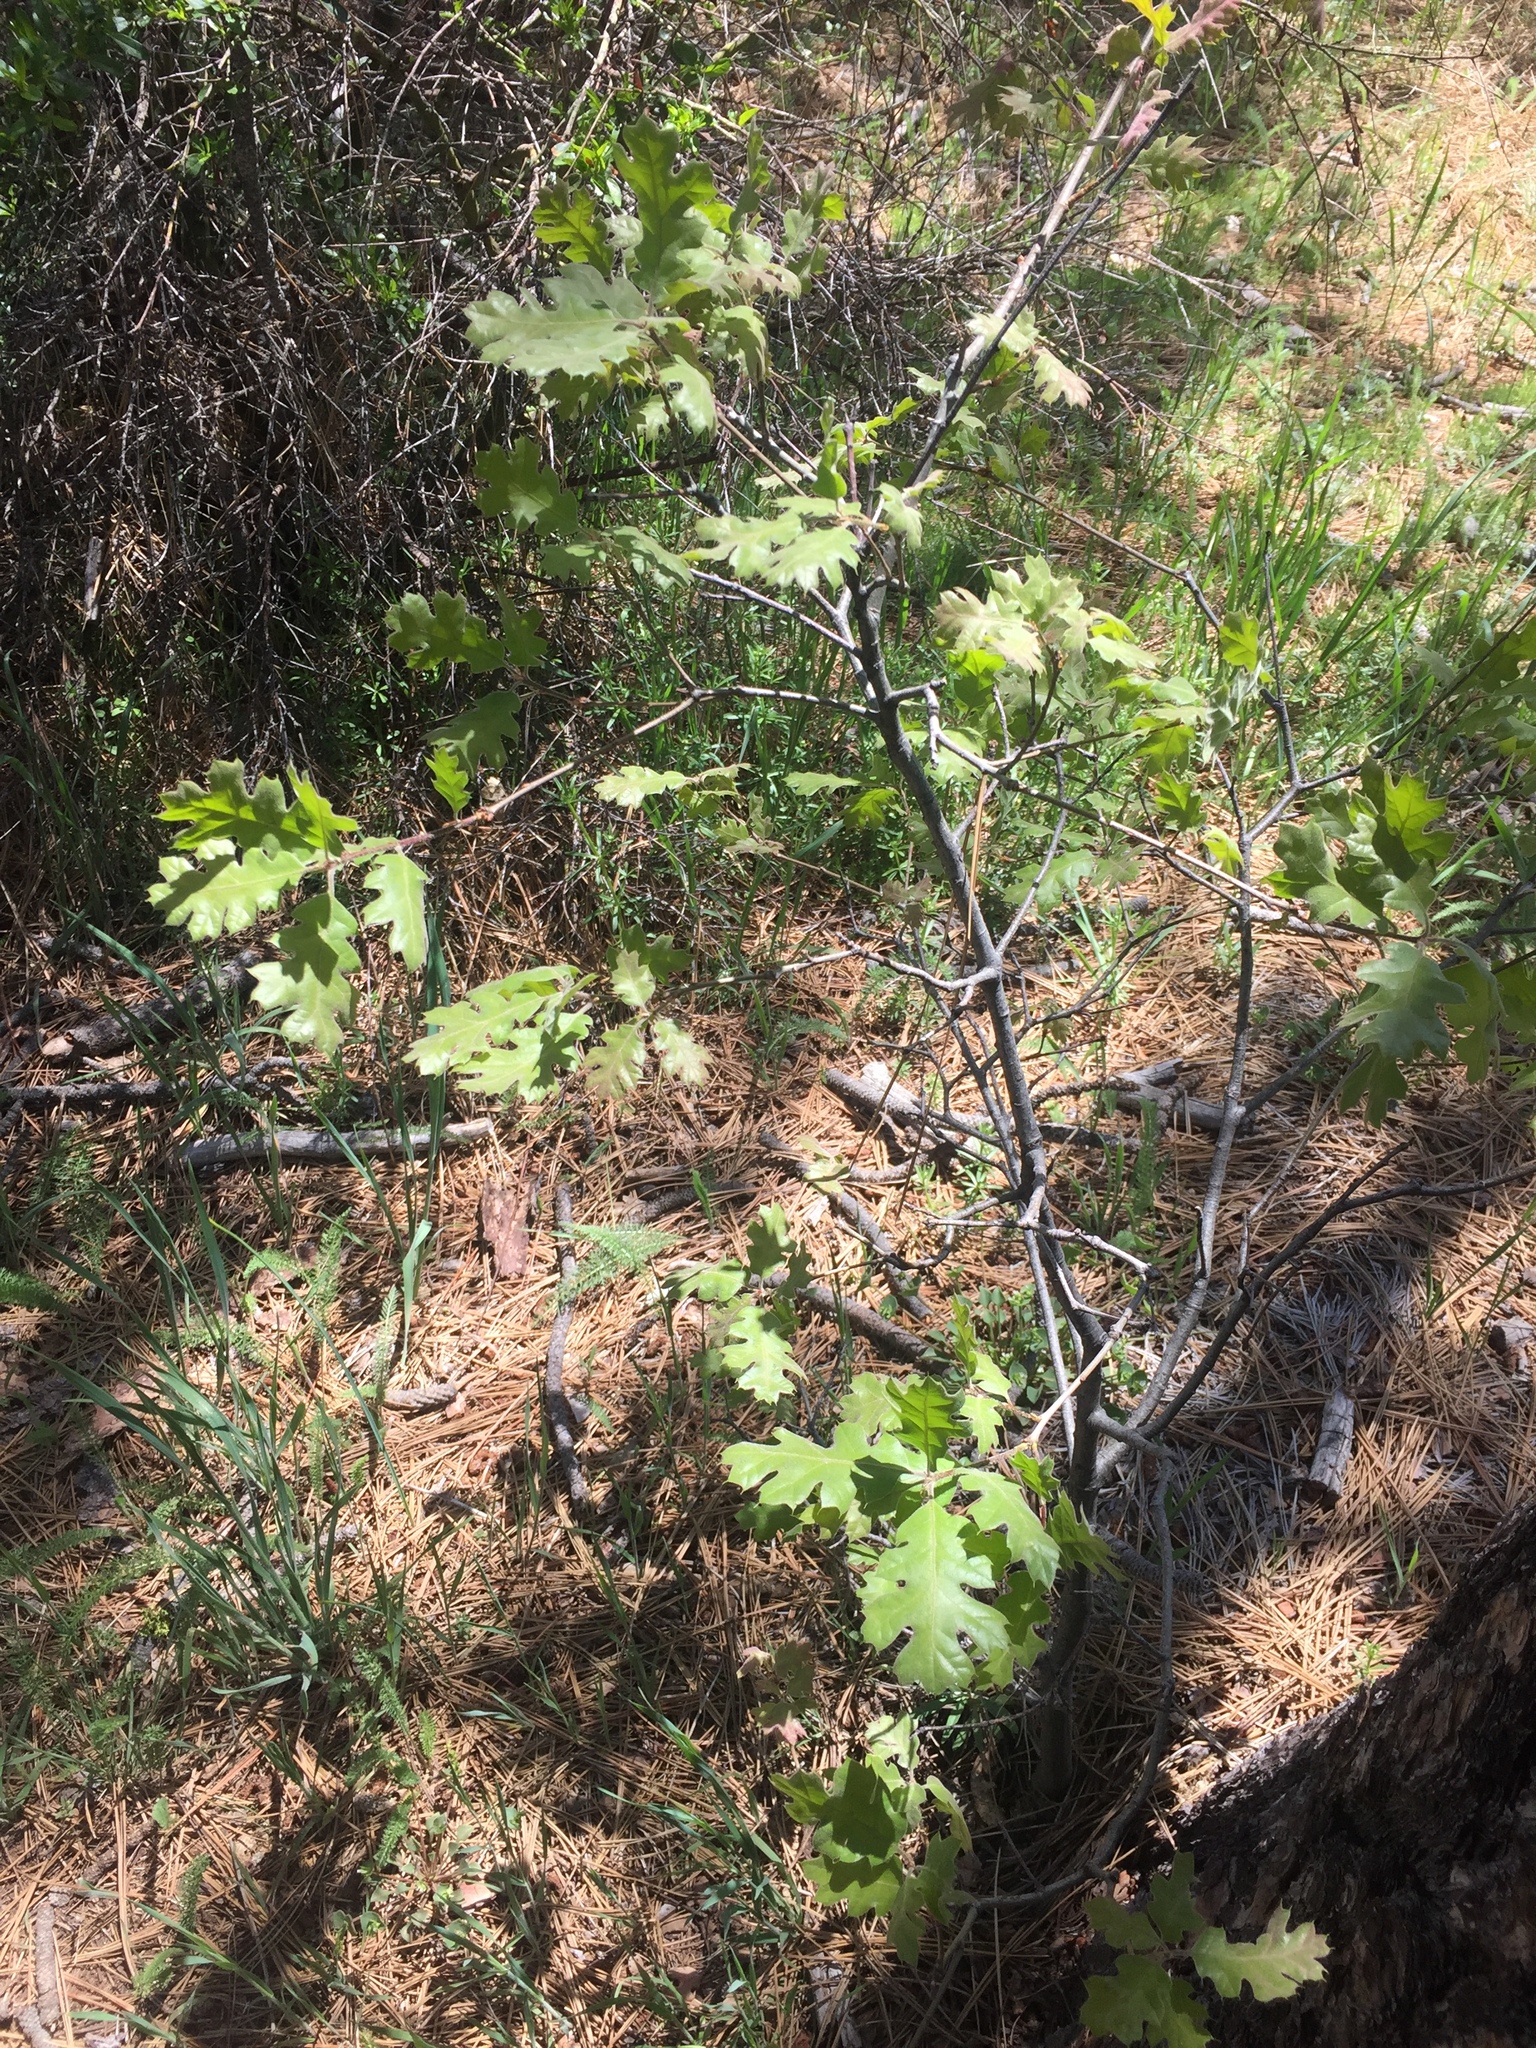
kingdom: Plantae
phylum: Tracheophyta
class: Magnoliopsida
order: Fagales
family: Fagaceae
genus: Quercus
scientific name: Quercus kelloggii
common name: California black oak
